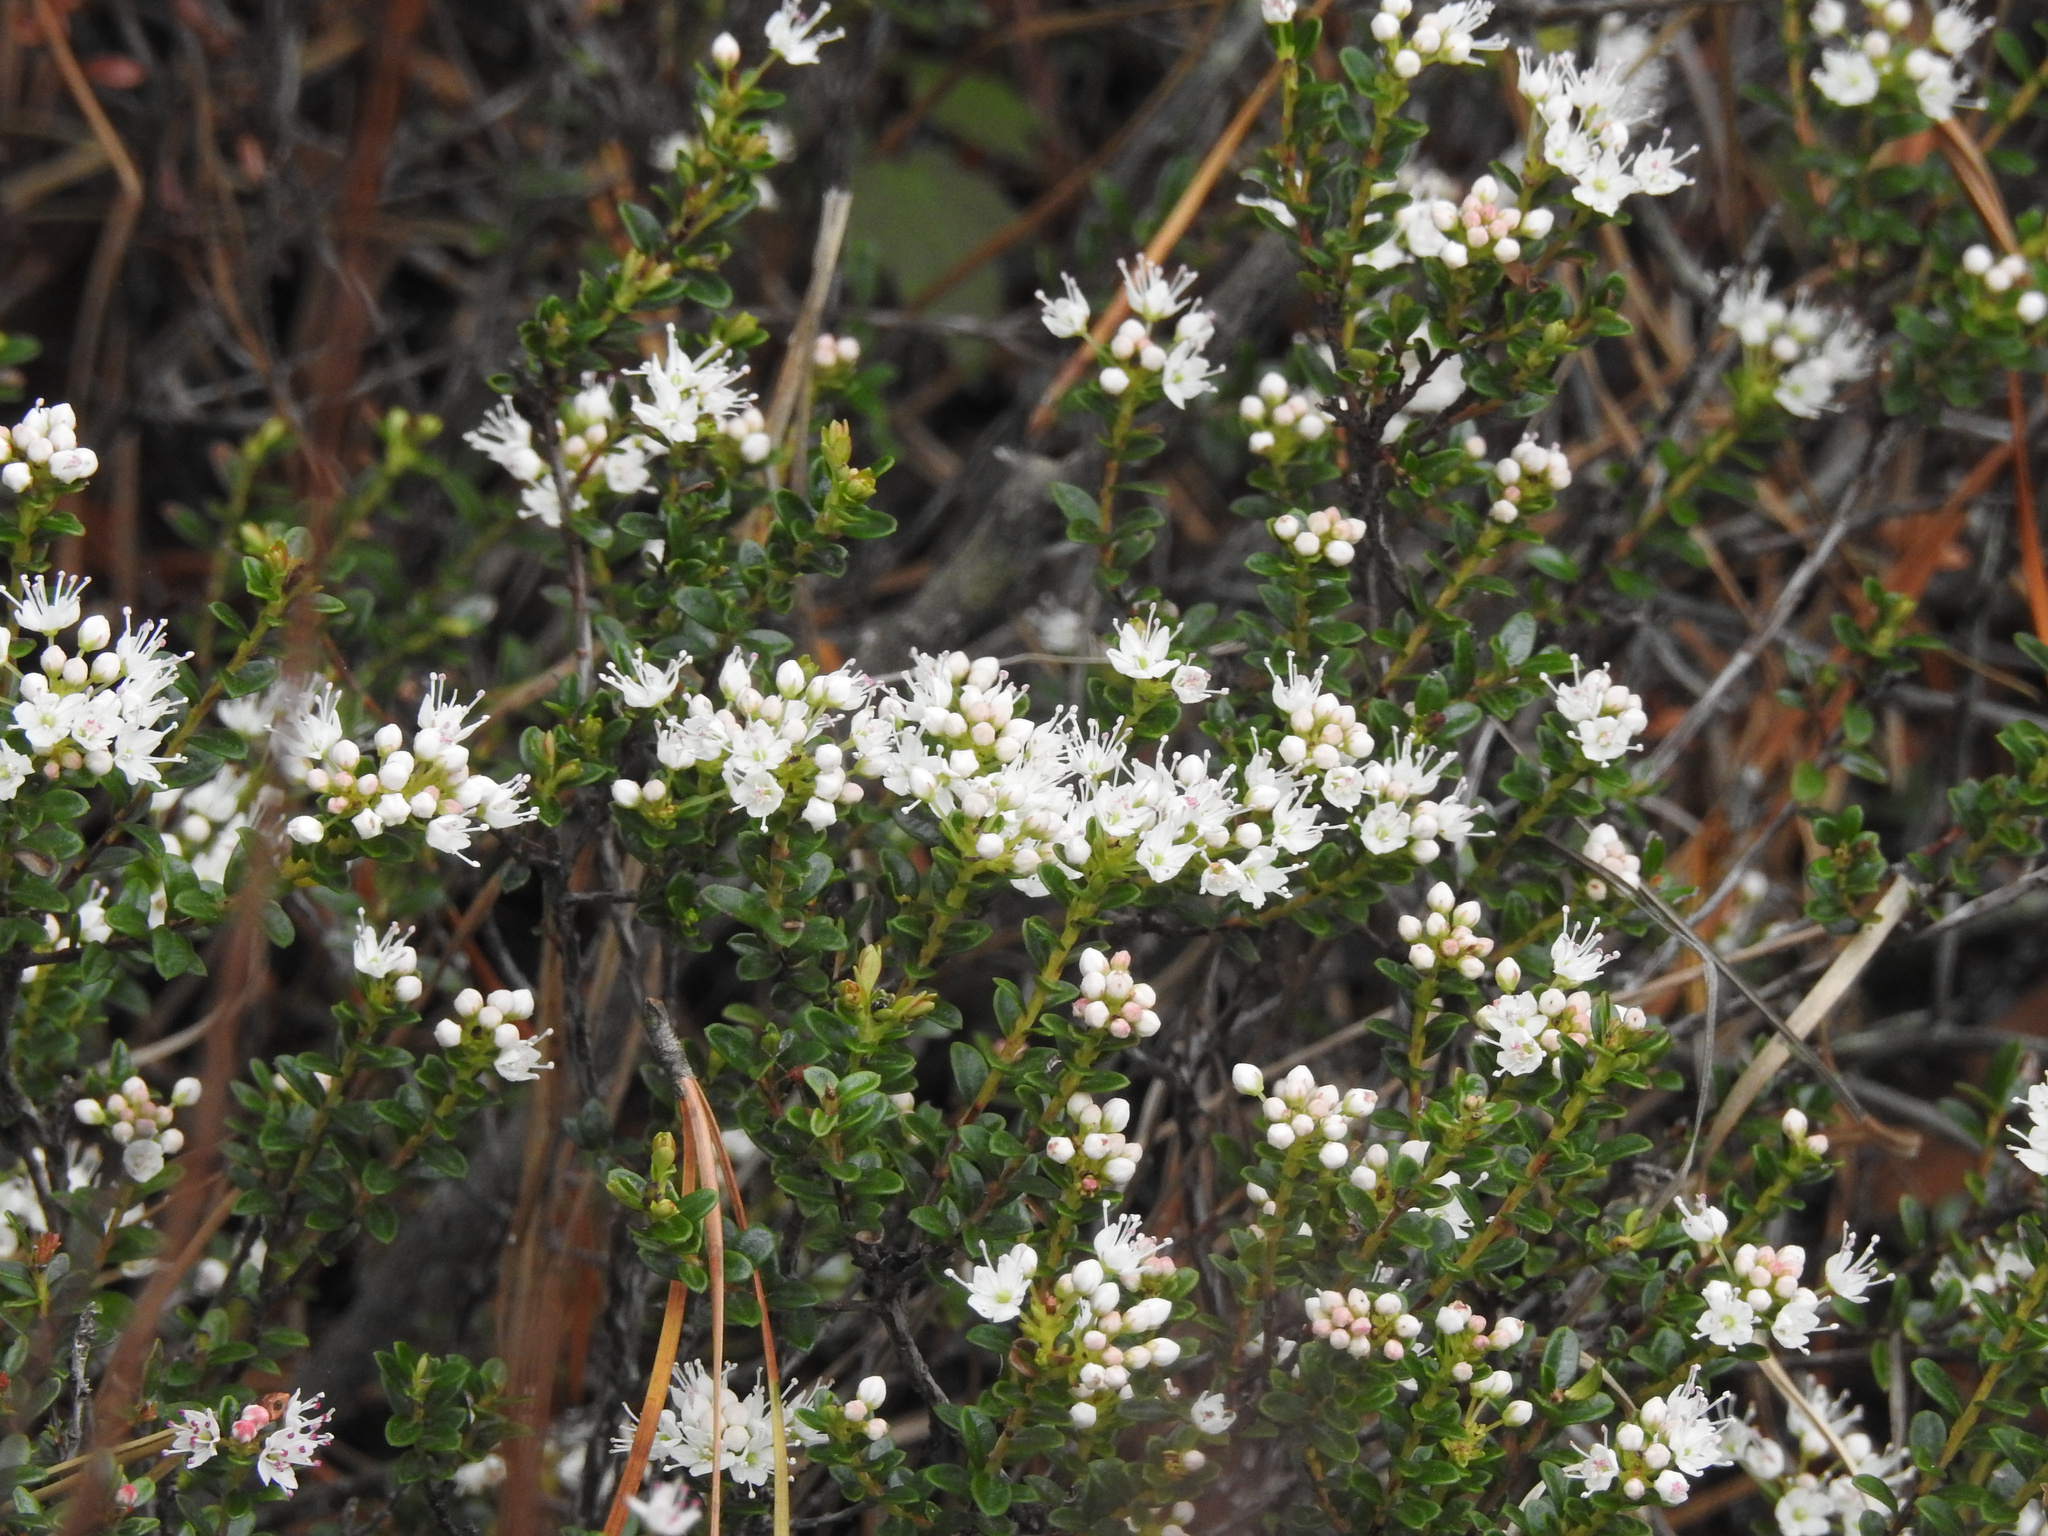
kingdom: Plantae
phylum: Tracheophyta
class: Magnoliopsida
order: Ericales
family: Ericaceae
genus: Kalmia
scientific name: Kalmia buxifolia
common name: Sandmyrtle
